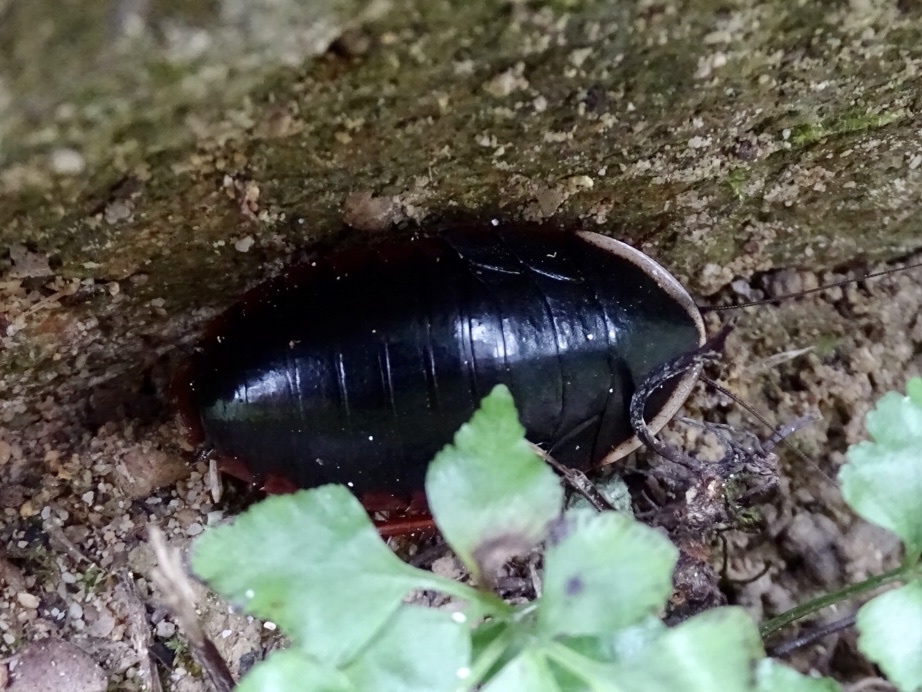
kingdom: Animalia
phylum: Arthropoda
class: Insecta
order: Blattodea
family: Blaberidae
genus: Opisthoplatia
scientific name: Opisthoplatia orientalis
